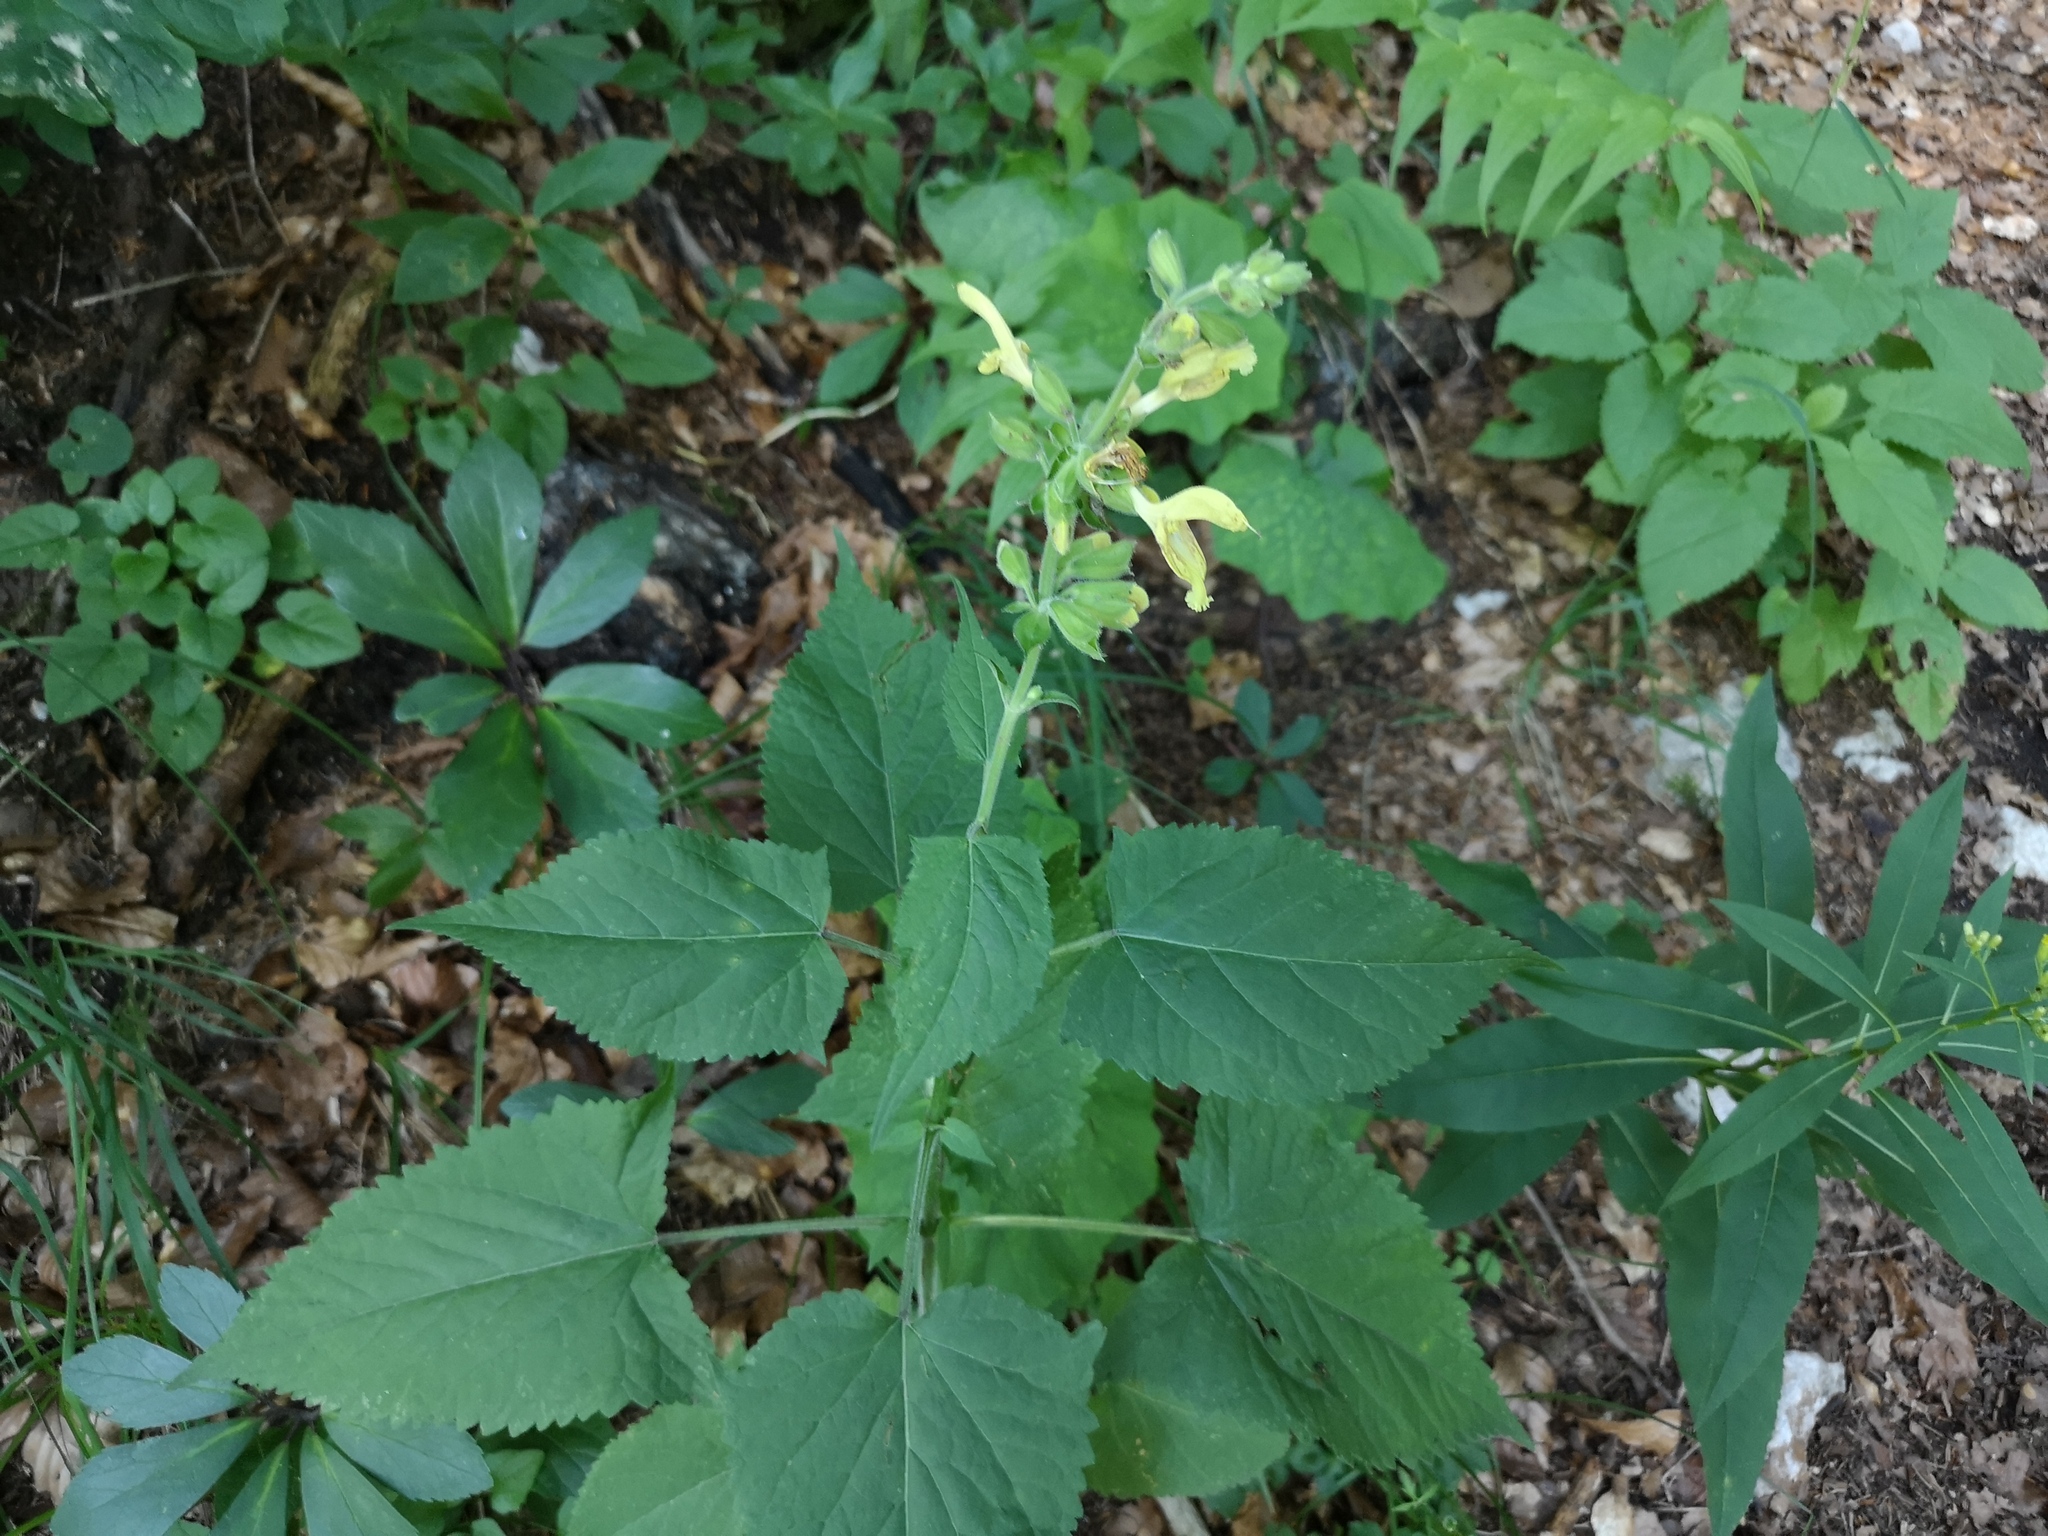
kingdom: Plantae
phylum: Tracheophyta
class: Magnoliopsida
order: Lamiales
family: Lamiaceae
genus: Salvia
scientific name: Salvia glutinosa
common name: Sticky clary
